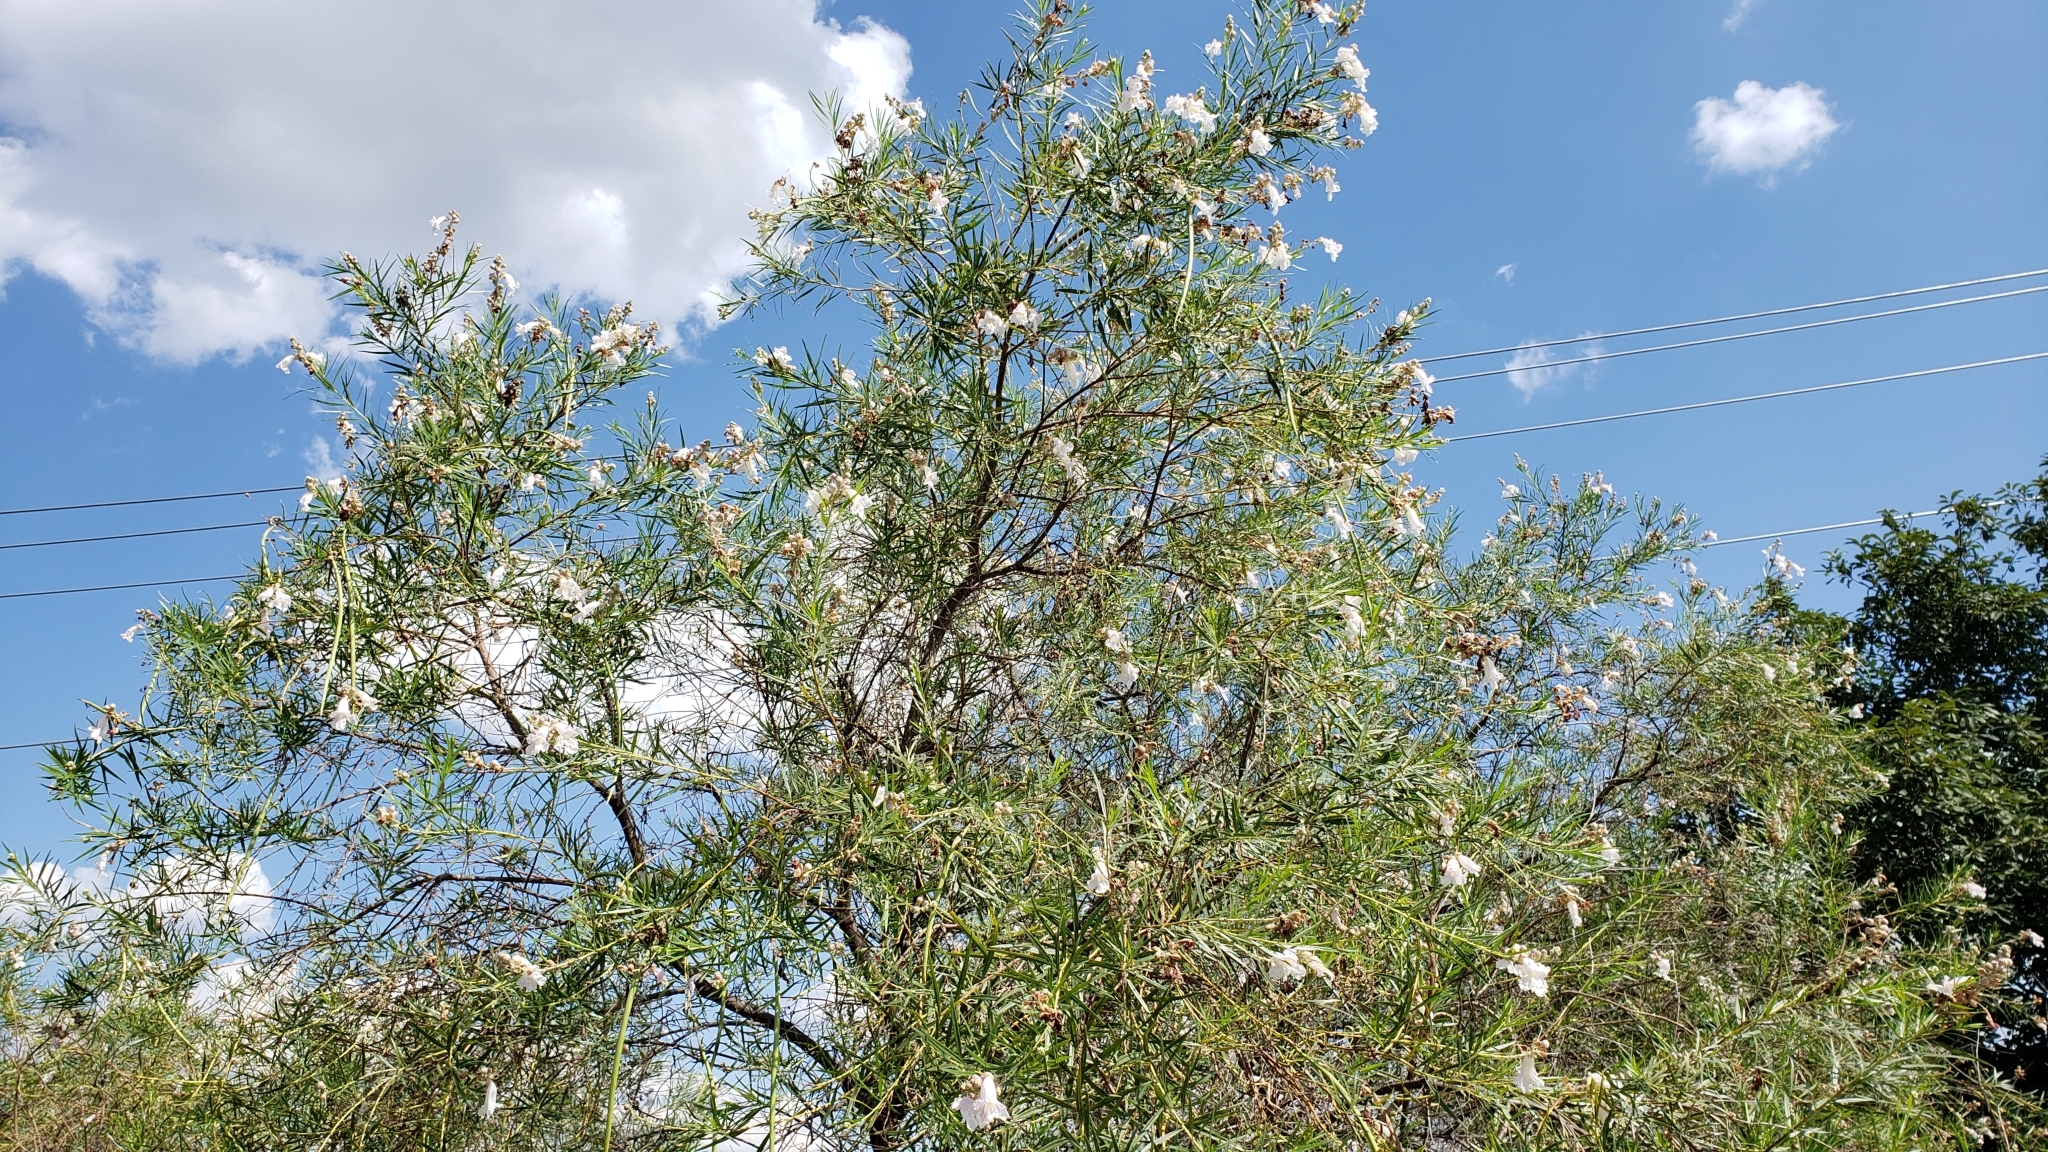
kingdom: Plantae
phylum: Tracheophyta
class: Magnoliopsida
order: Lamiales
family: Bignoniaceae
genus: Chilopsis
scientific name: Chilopsis linearis
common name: Desert-willow
